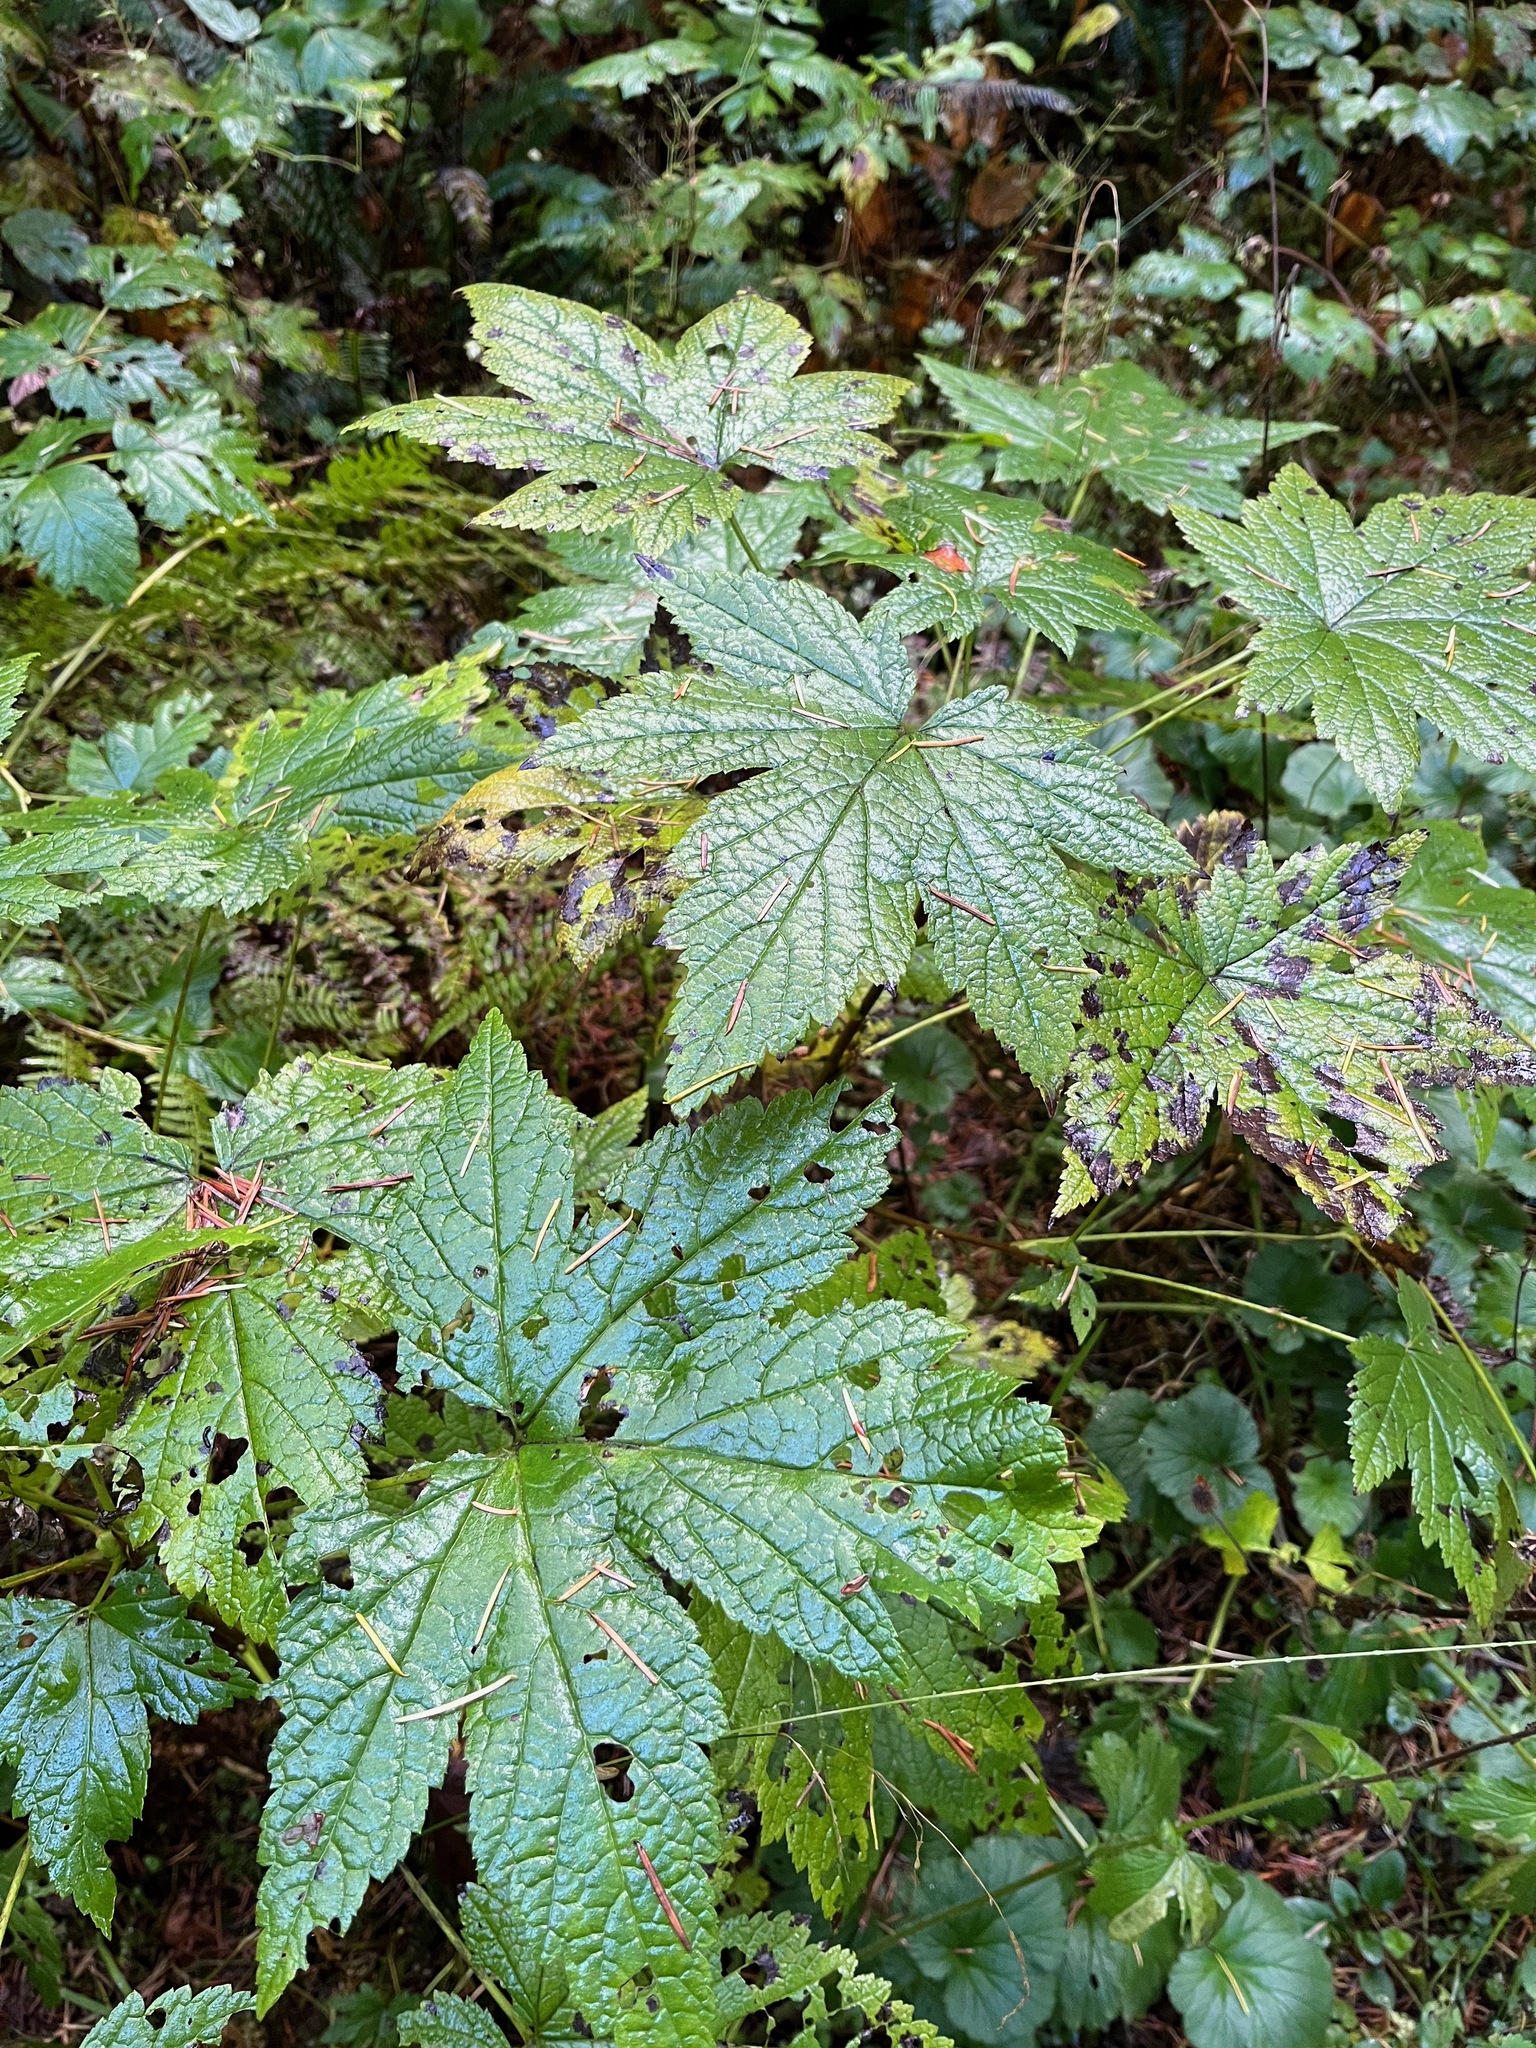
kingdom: Plantae
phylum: Tracheophyta
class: Magnoliopsida
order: Saxifragales
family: Grossulariaceae
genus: Ribes
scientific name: Ribes bracteosum
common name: California black currant
